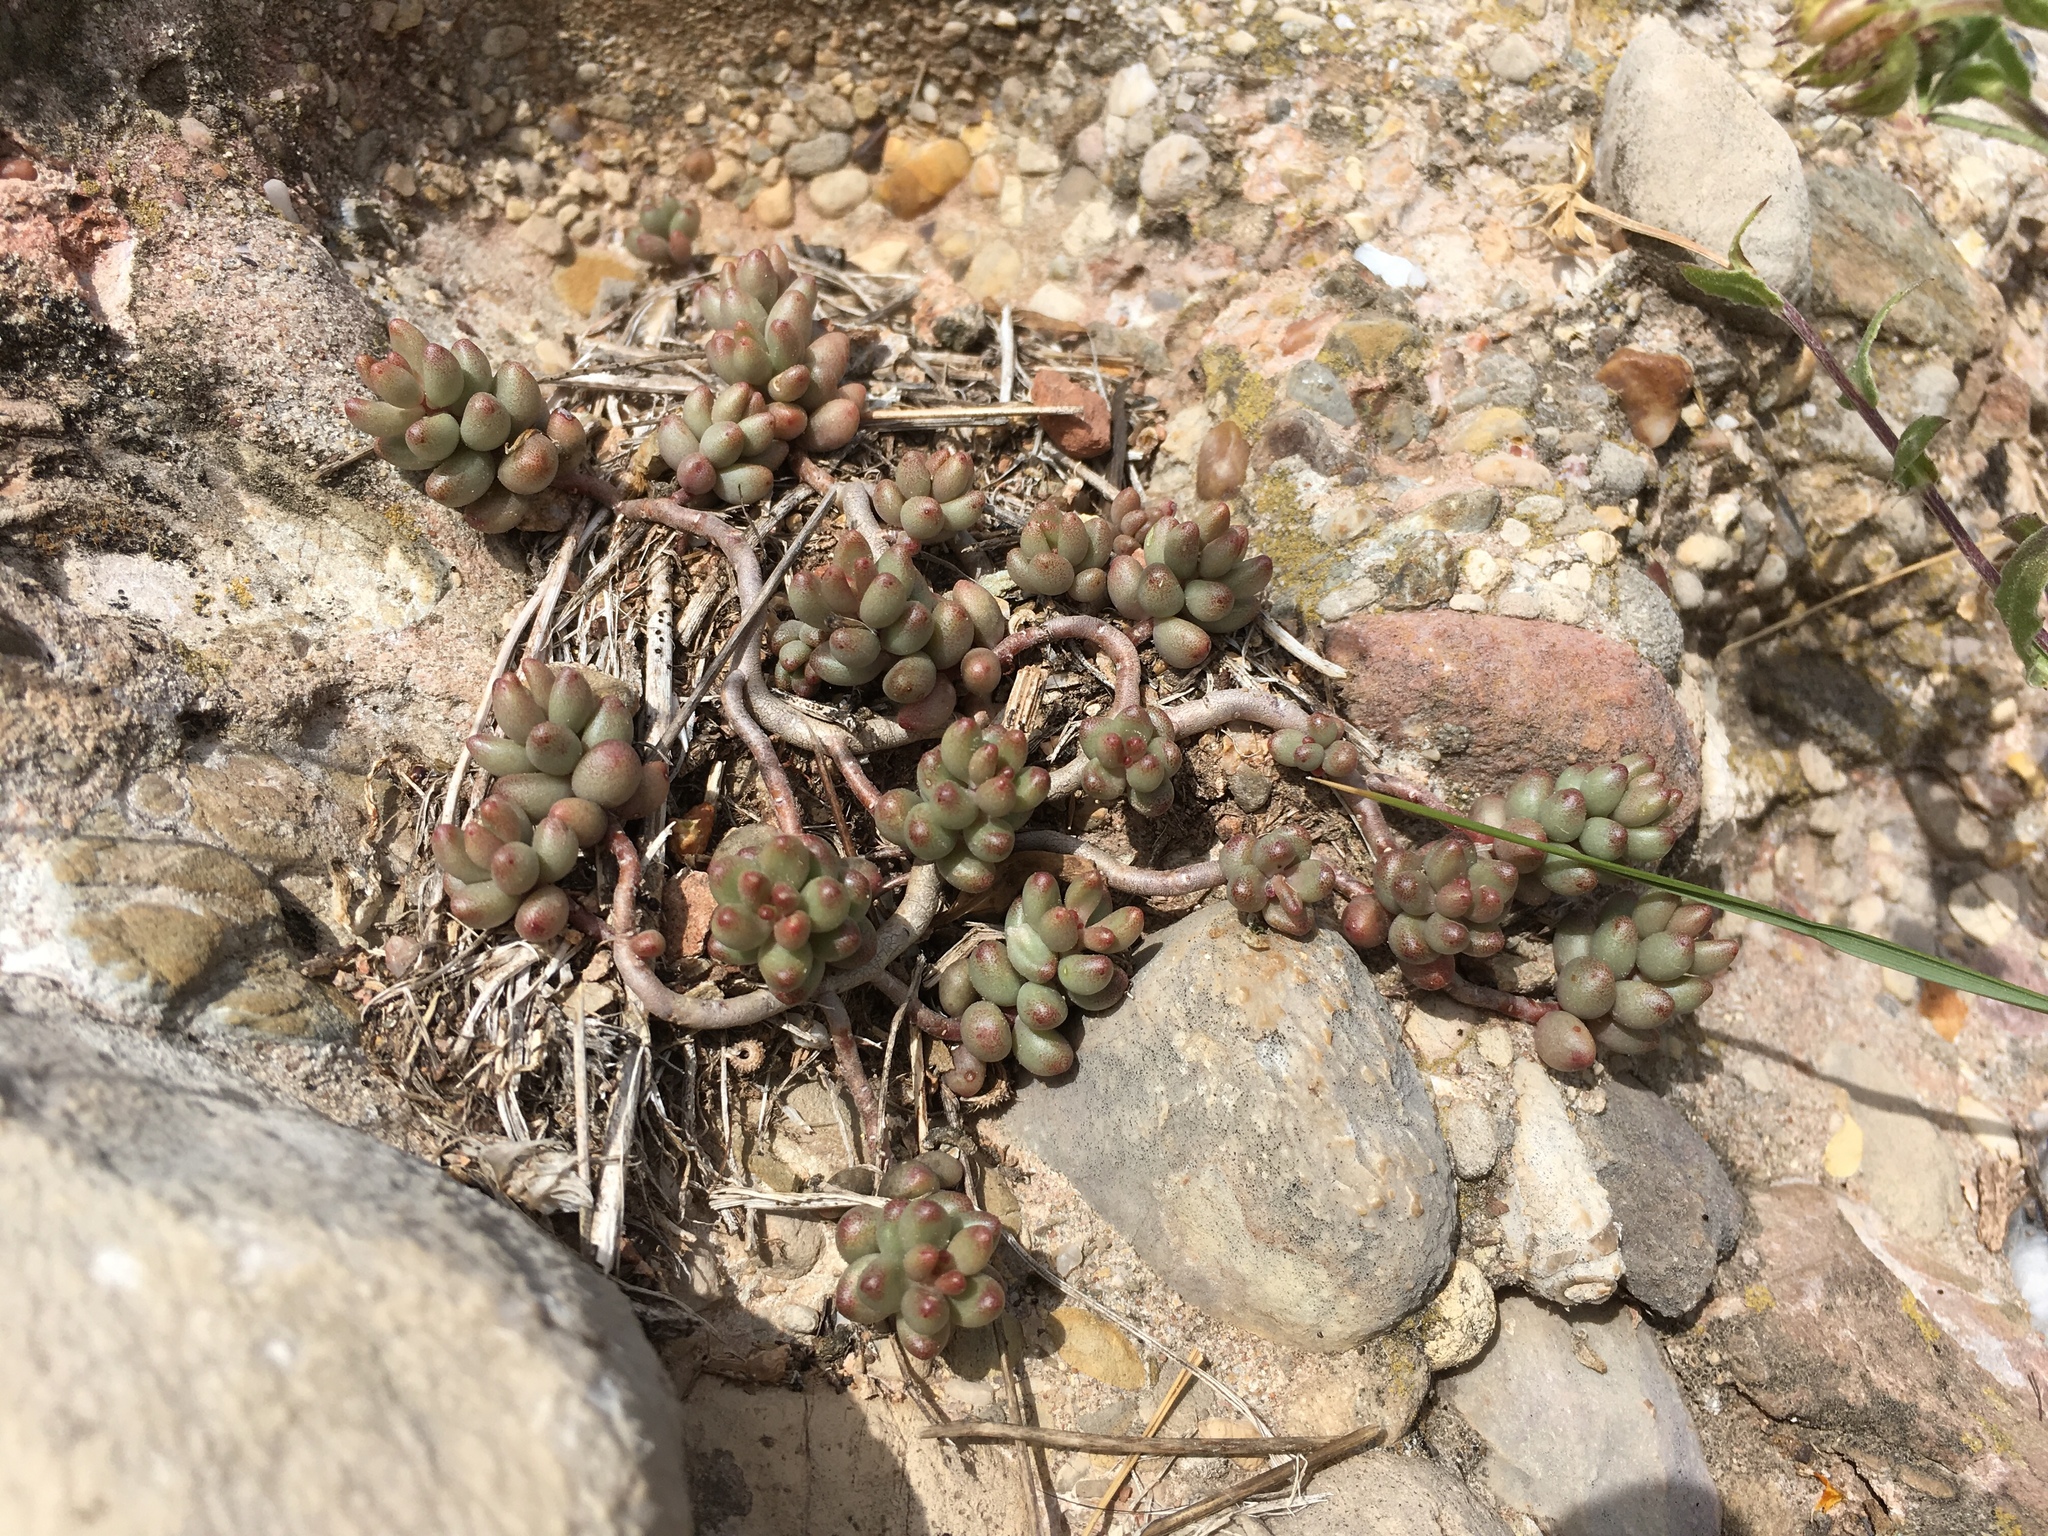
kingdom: Plantae
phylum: Tracheophyta
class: Magnoliopsida
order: Saxifragales
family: Crassulaceae
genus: Sedum
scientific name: Sedum album
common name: White stonecrop
